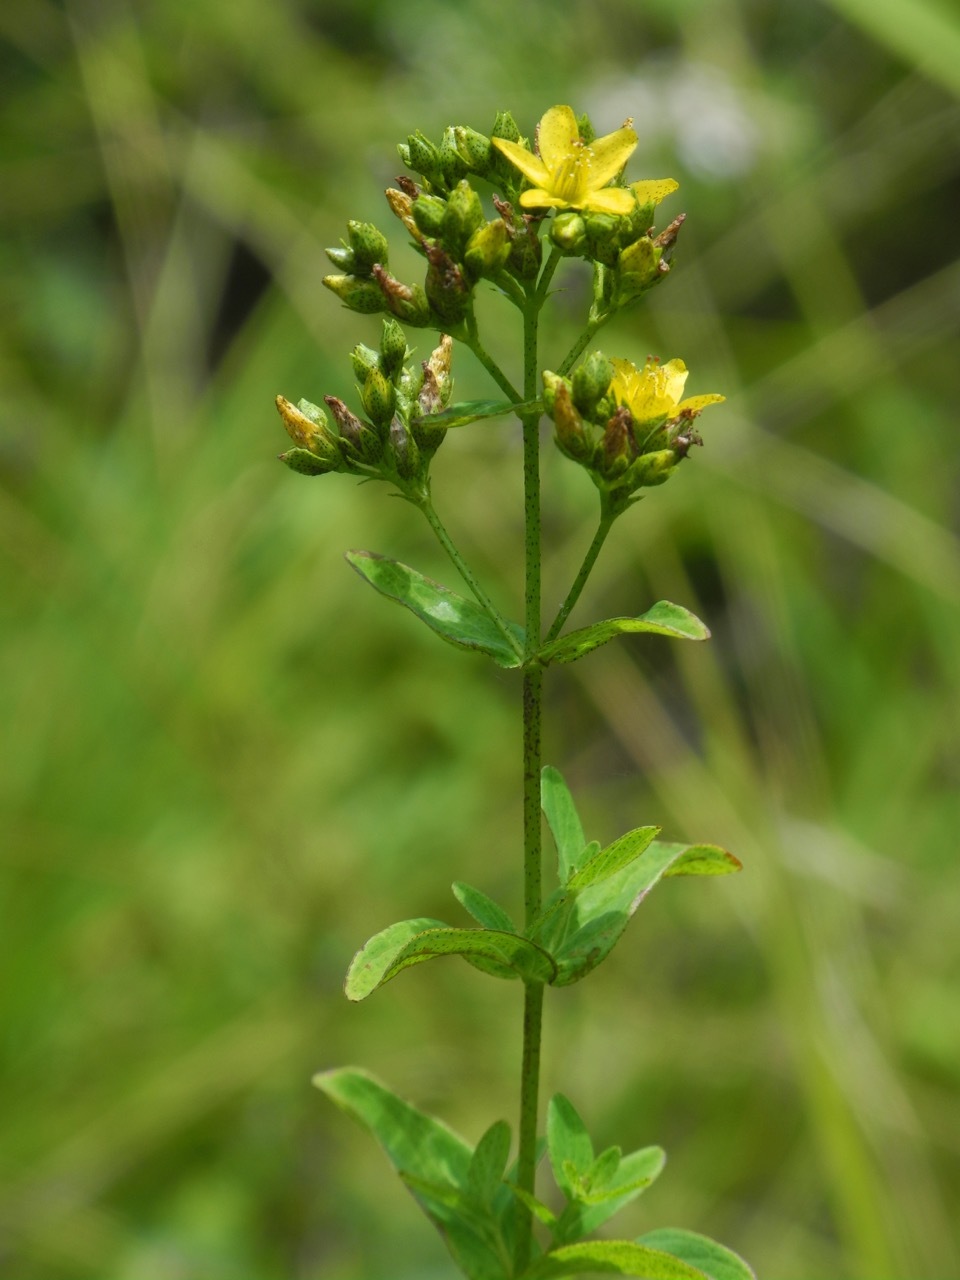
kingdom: Plantae
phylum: Tracheophyta
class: Magnoliopsida
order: Malpighiales
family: Hypericaceae
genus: Hypericum
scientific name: Hypericum punctatum
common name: Spotted st. john's-wort
